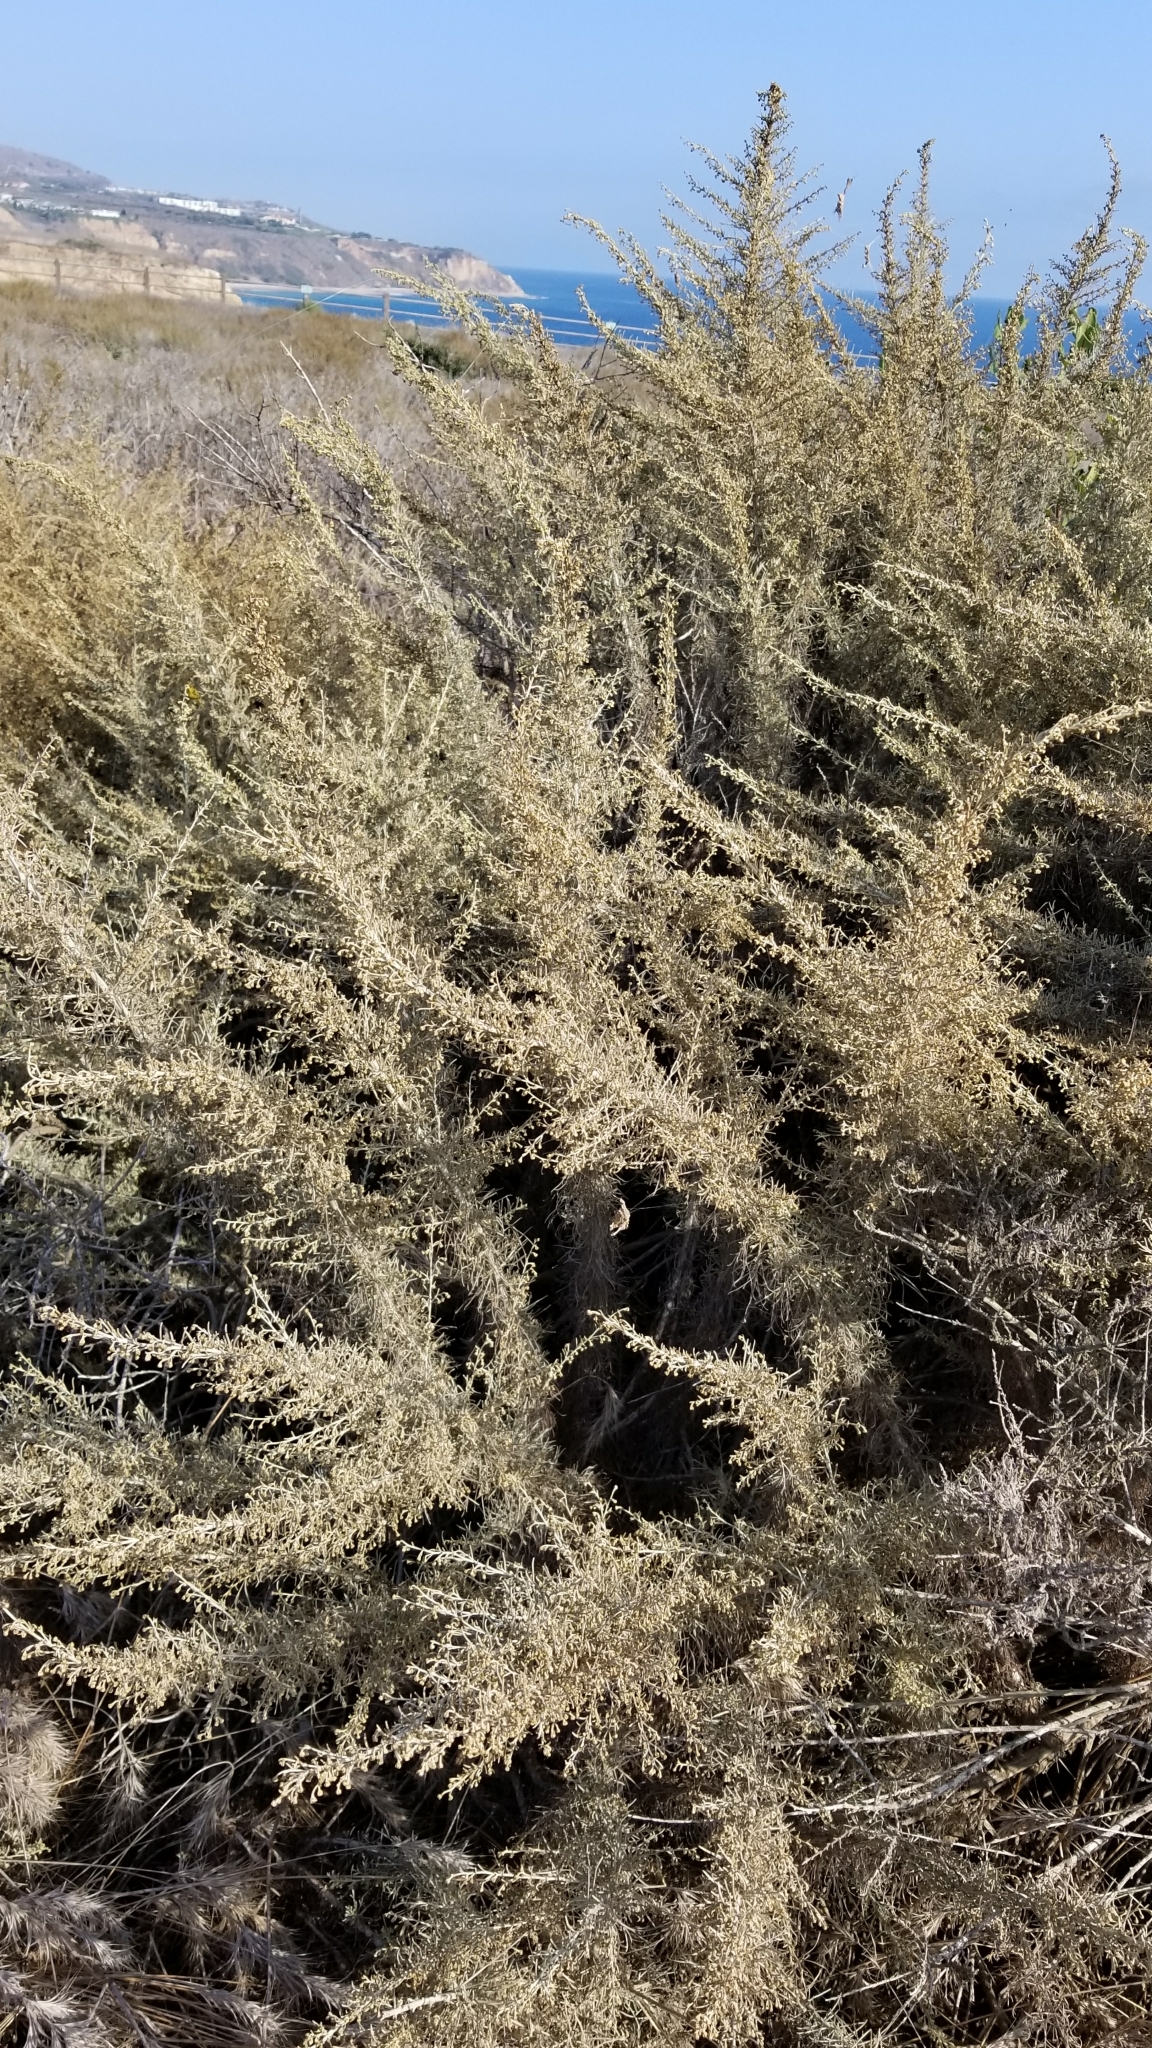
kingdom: Plantae
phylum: Tracheophyta
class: Magnoliopsida
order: Asterales
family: Asteraceae
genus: Artemisia
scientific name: Artemisia californica
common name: California sagebrush
